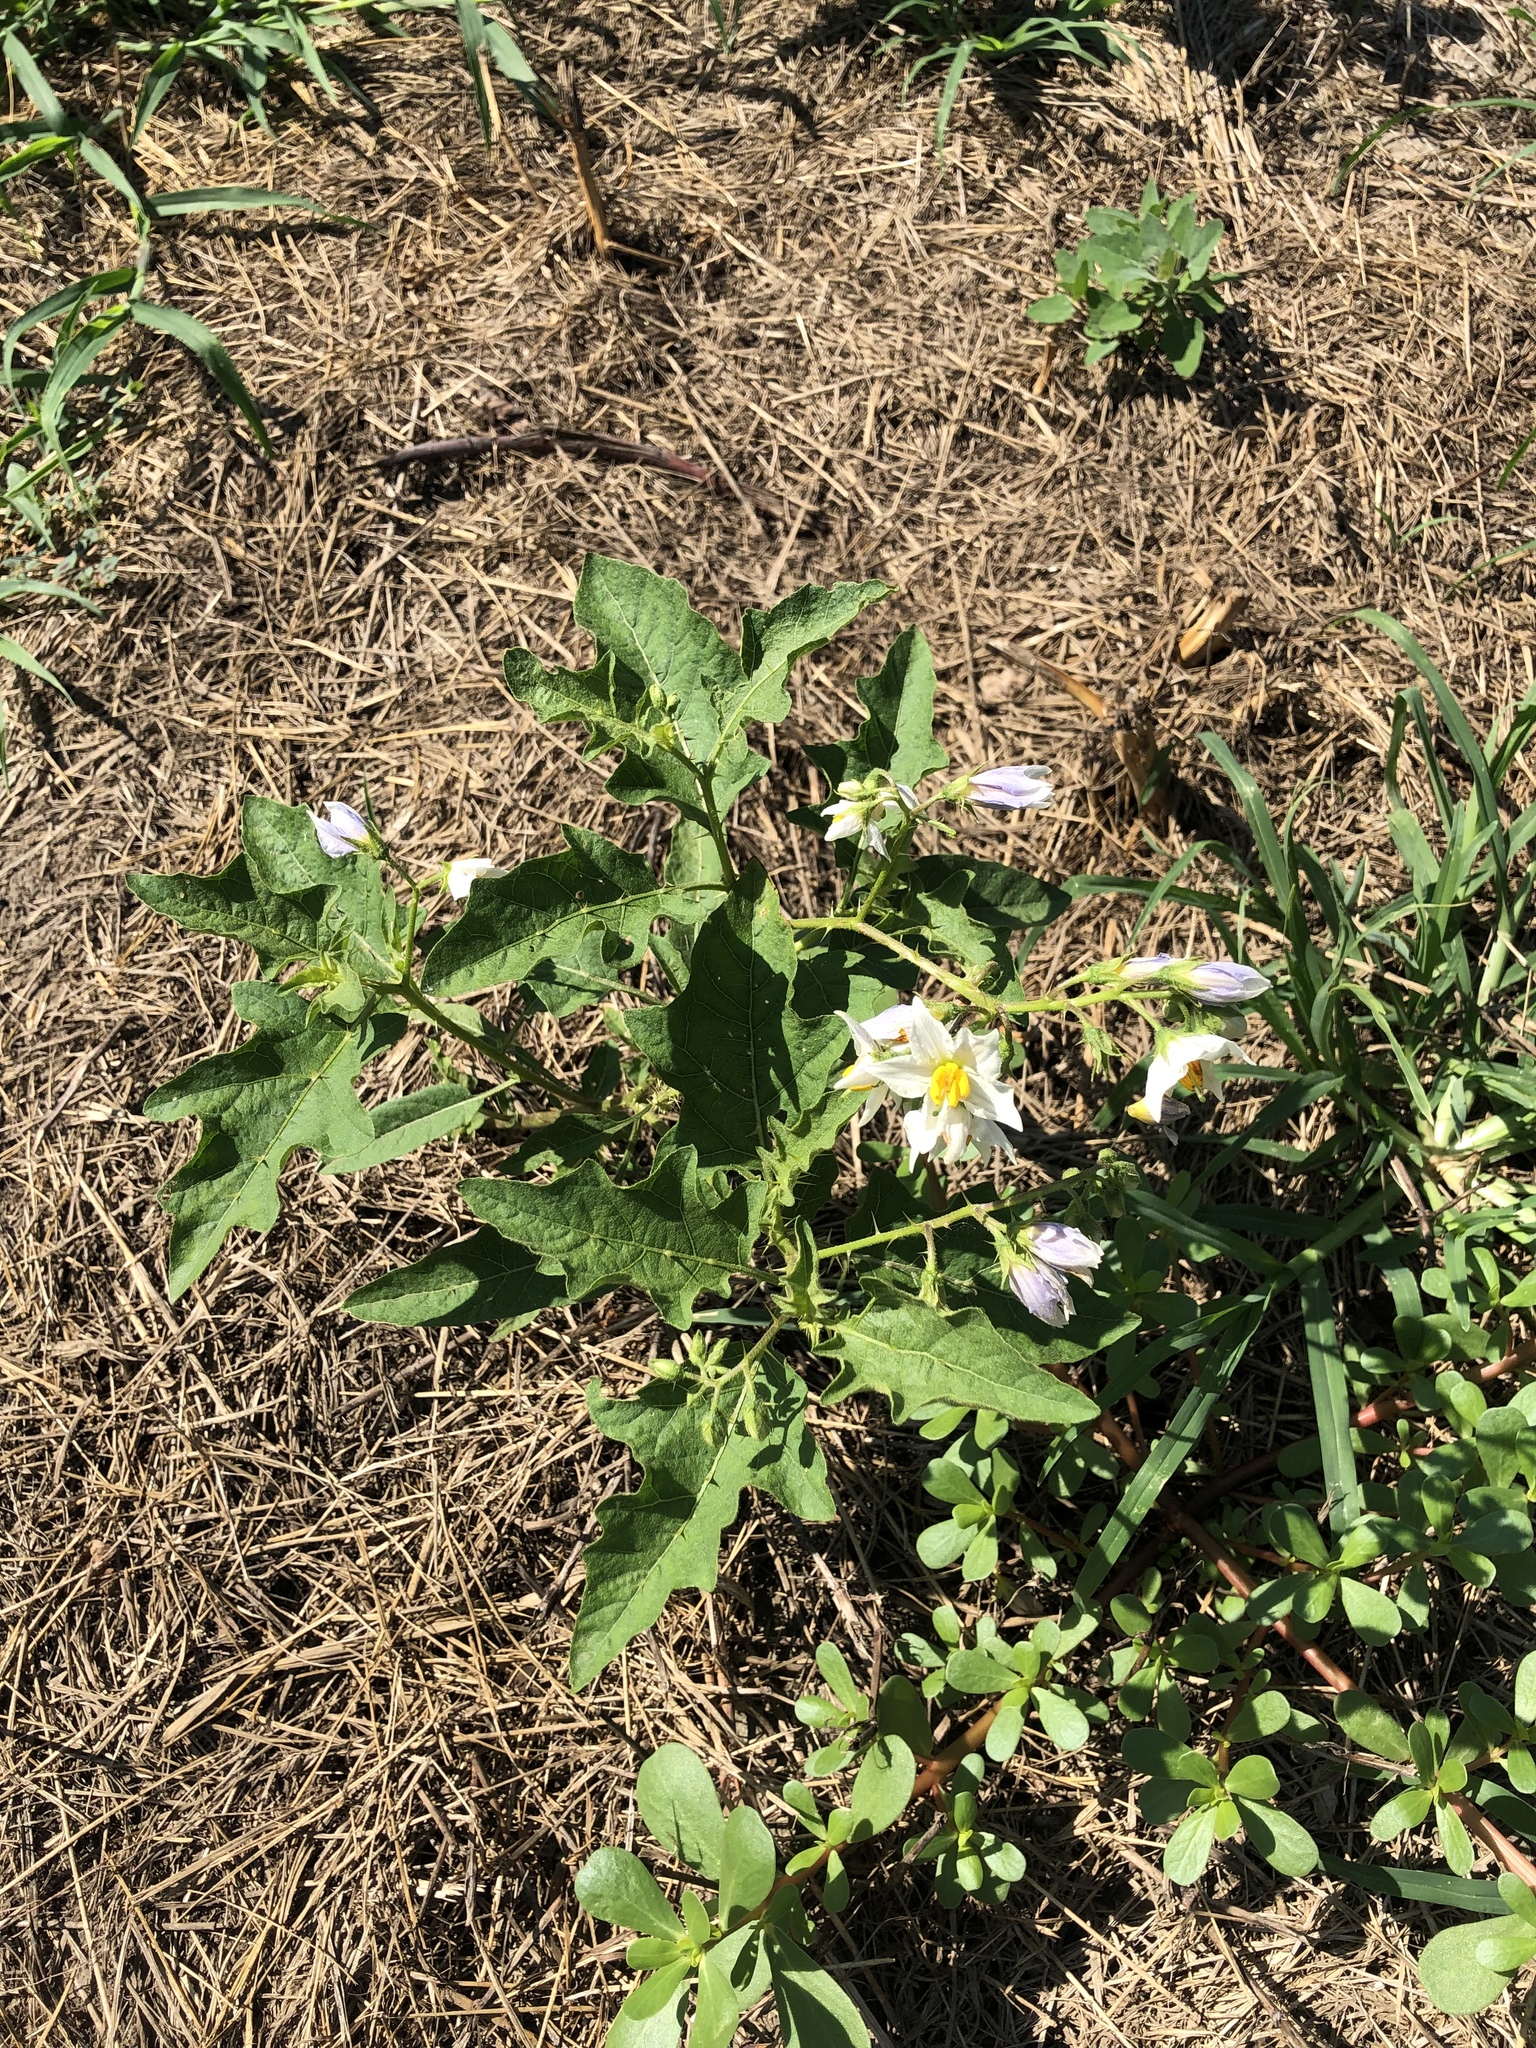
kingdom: Plantae
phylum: Tracheophyta
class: Magnoliopsida
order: Solanales
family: Solanaceae
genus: Solanum
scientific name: Solanum carolinense
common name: Horse-nettle
